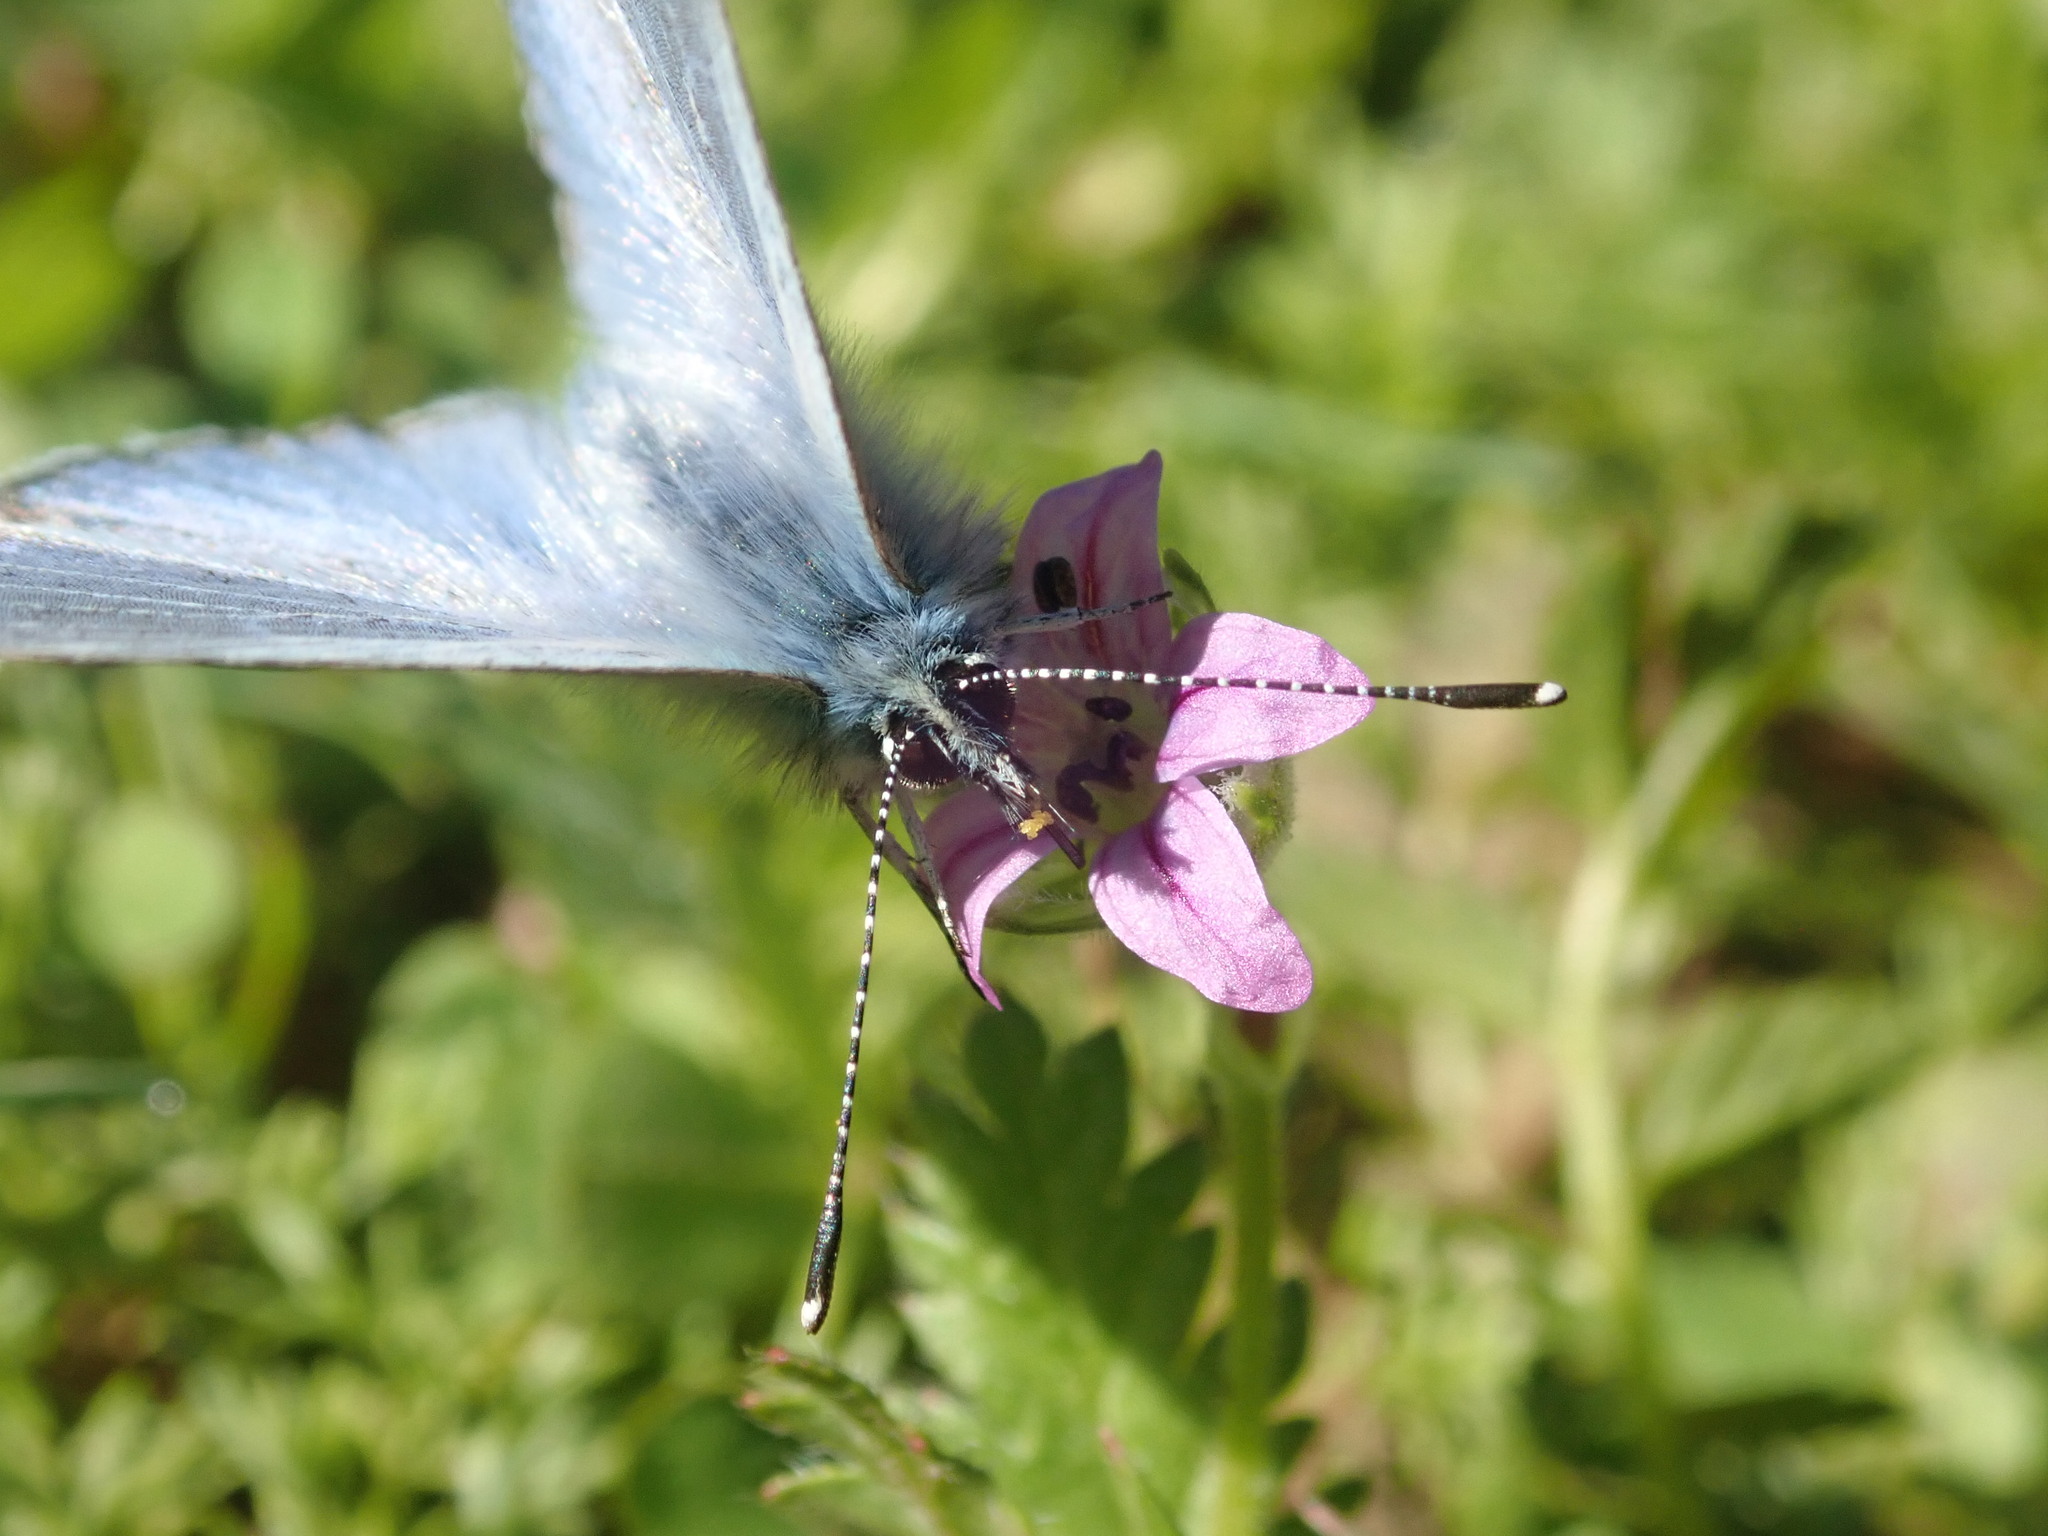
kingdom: Animalia
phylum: Arthropoda
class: Insecta
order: Lepidoptera
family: Lycaenidae
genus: Glaucopsyche
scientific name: Glaucopsyche lygdamus
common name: Silvery blue
